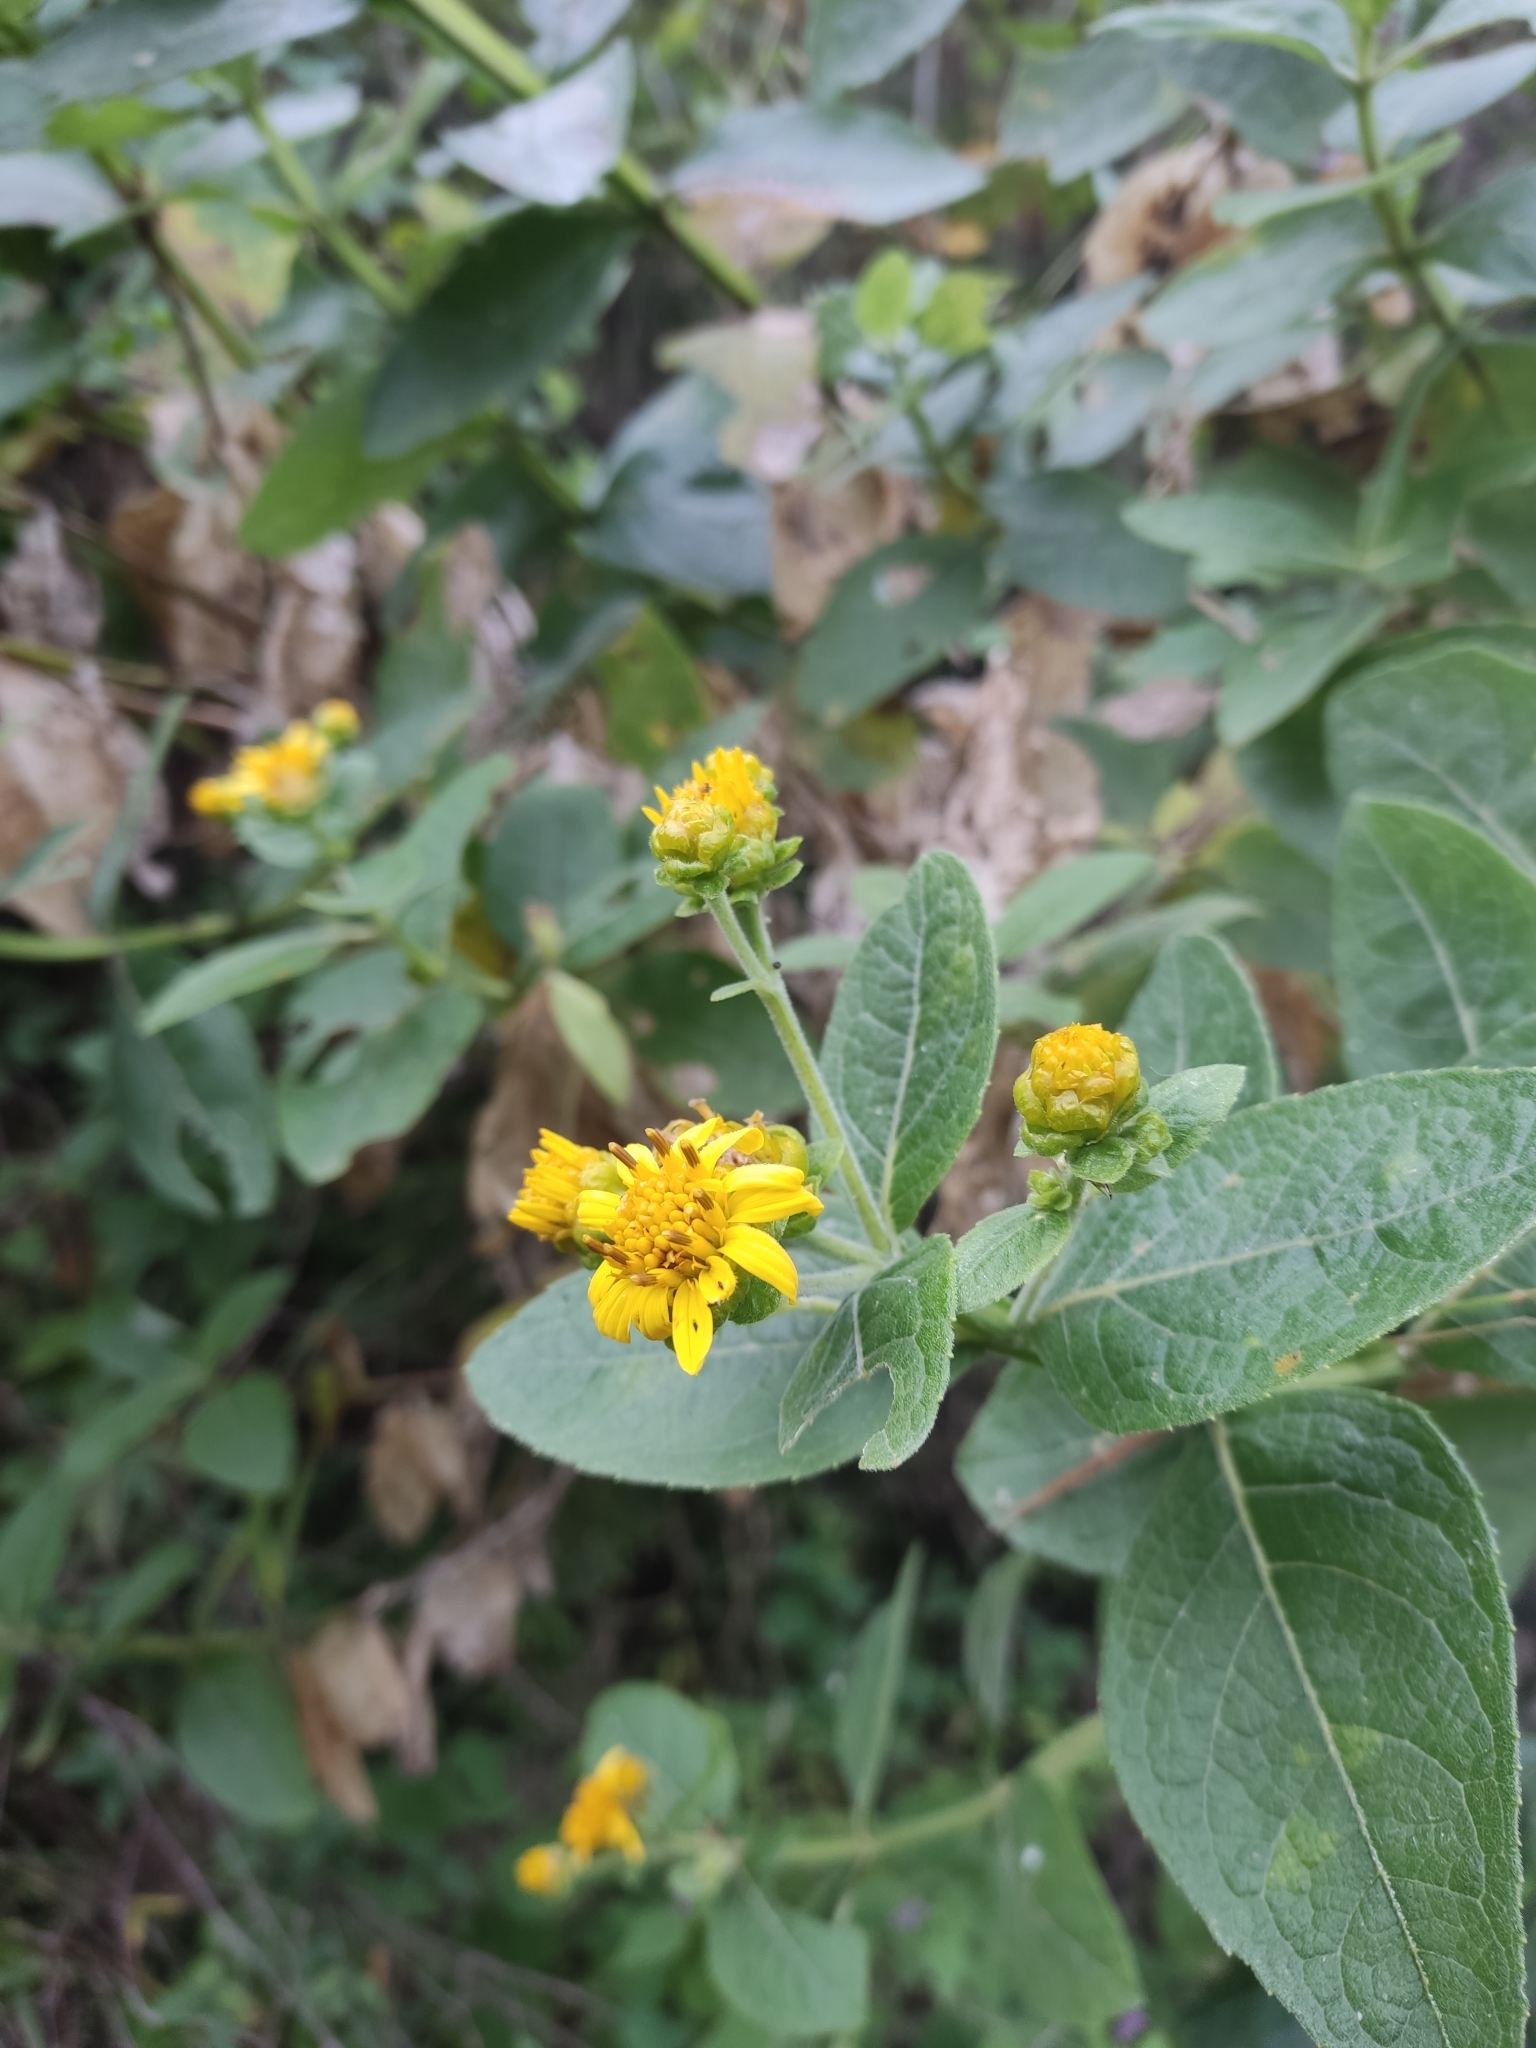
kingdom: Plantae
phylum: Tracheophyta
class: Magnoliopsida
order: Asterales
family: Asteraceae
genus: Verbesina
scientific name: Verbesina sphaerocephala
